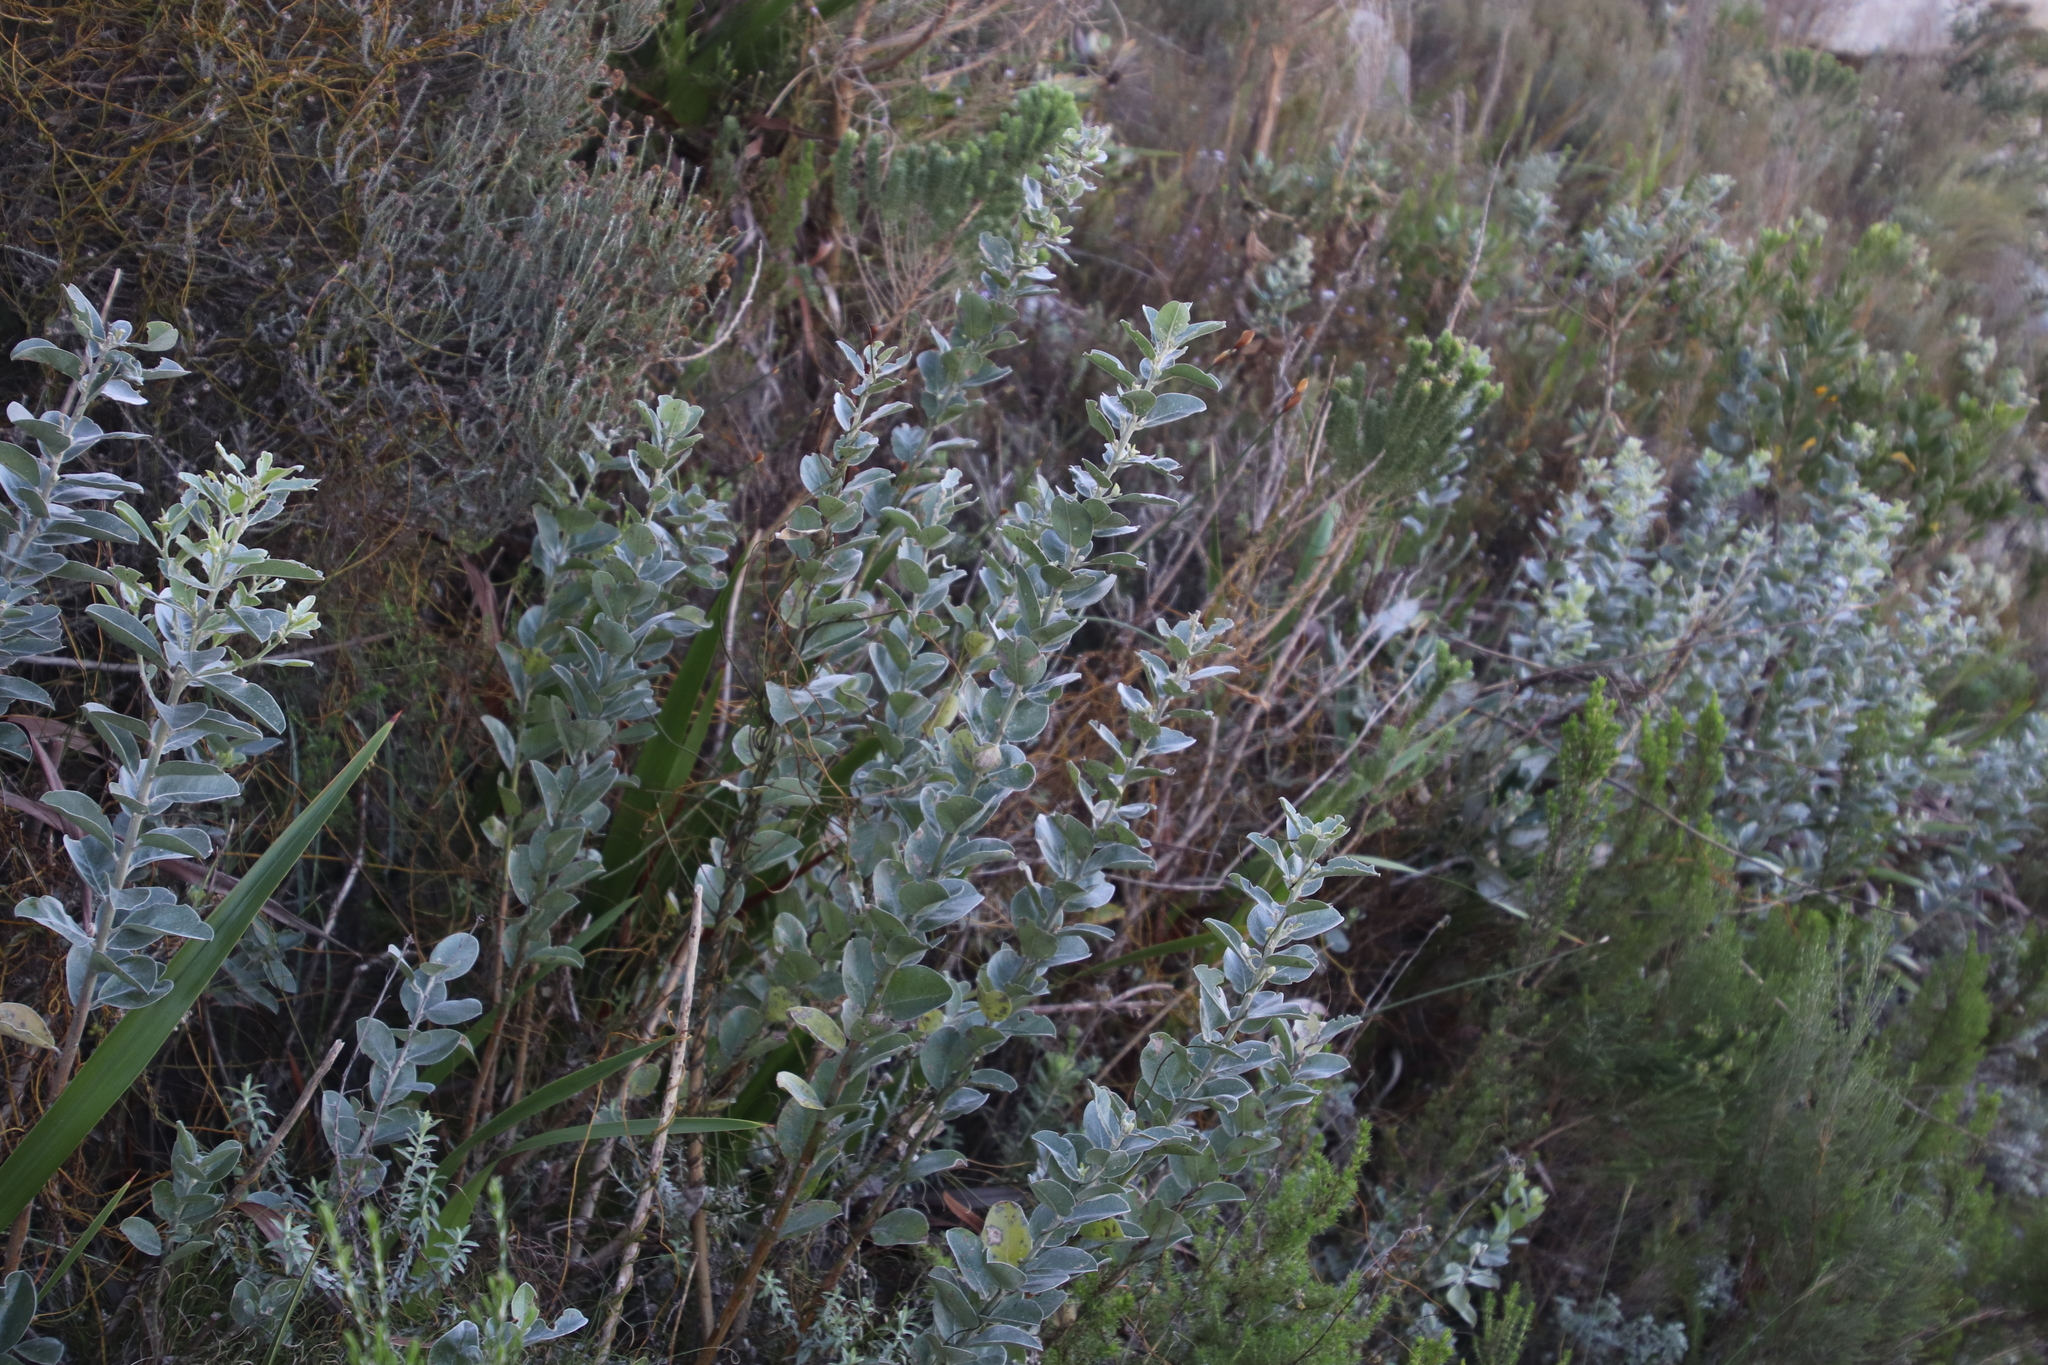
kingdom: Plantae
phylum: Tracheophyta
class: Magnoliopsida
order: Fabales
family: Fabaceae
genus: Podalyria
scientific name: Podalyria calyptrata
